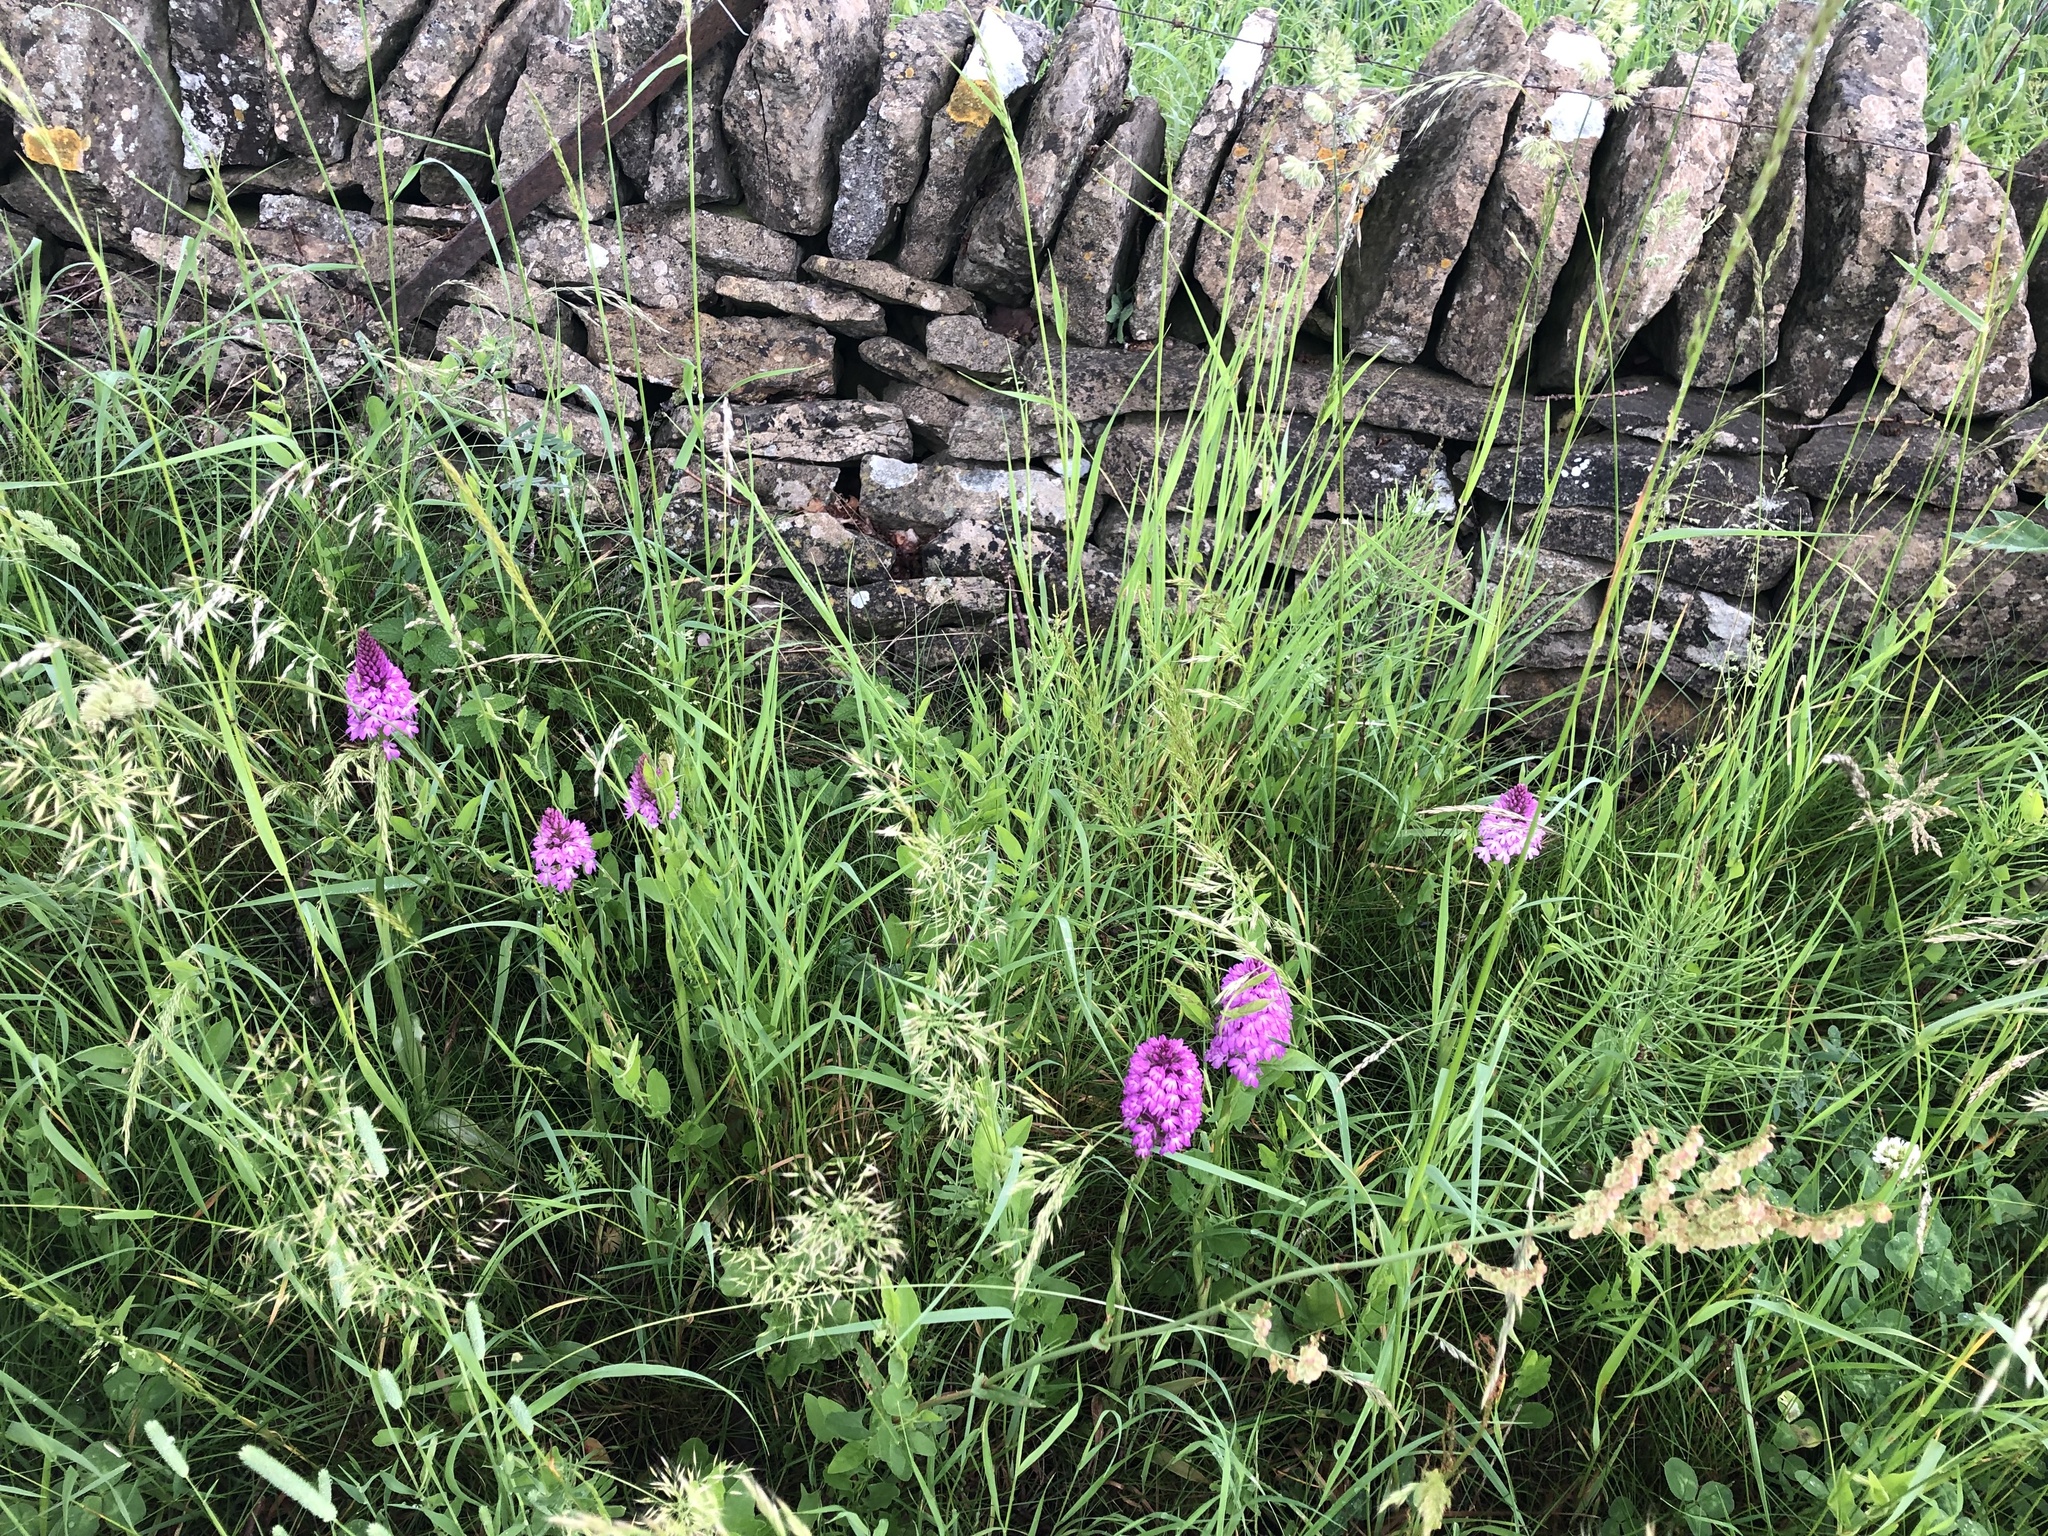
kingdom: Plantae
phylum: Tracheophyta
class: Liliopsida
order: Asparagales
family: Orchidaceae
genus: Anacamptis
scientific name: Anacamptis pyramidalis
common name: Pyramidal orchid
